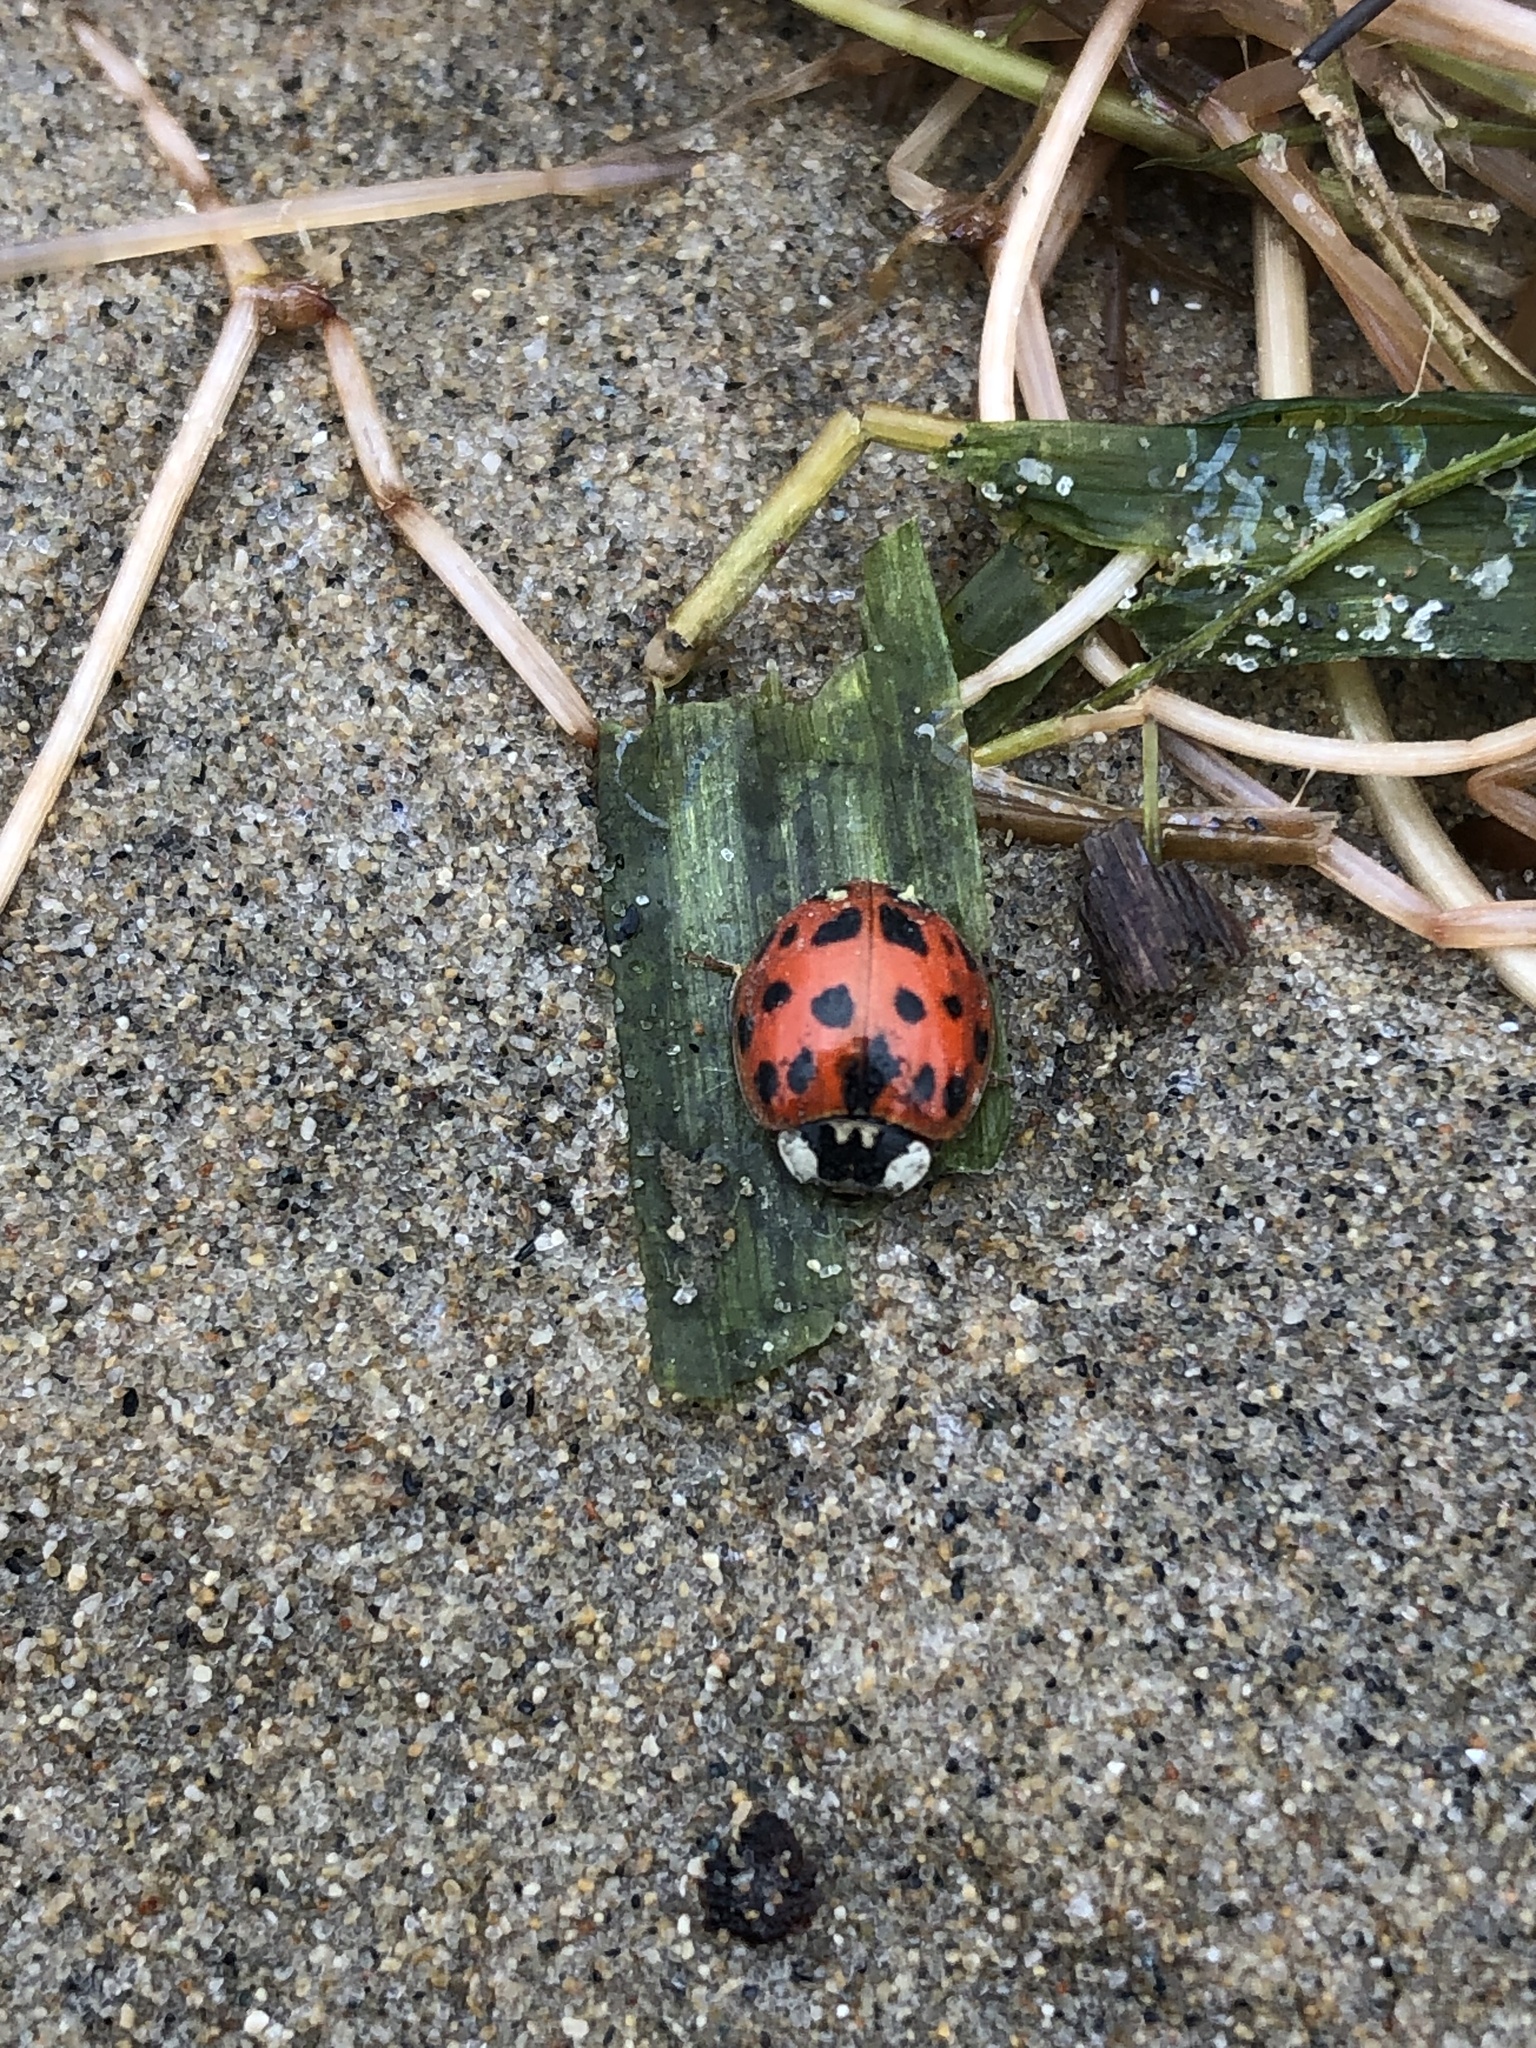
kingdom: Animalia
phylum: Arthropoda
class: Insecta
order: Coleoptera
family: Coccinellidae
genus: Harmonia
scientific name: Harmonia axyridis
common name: Harlequin ladybird
